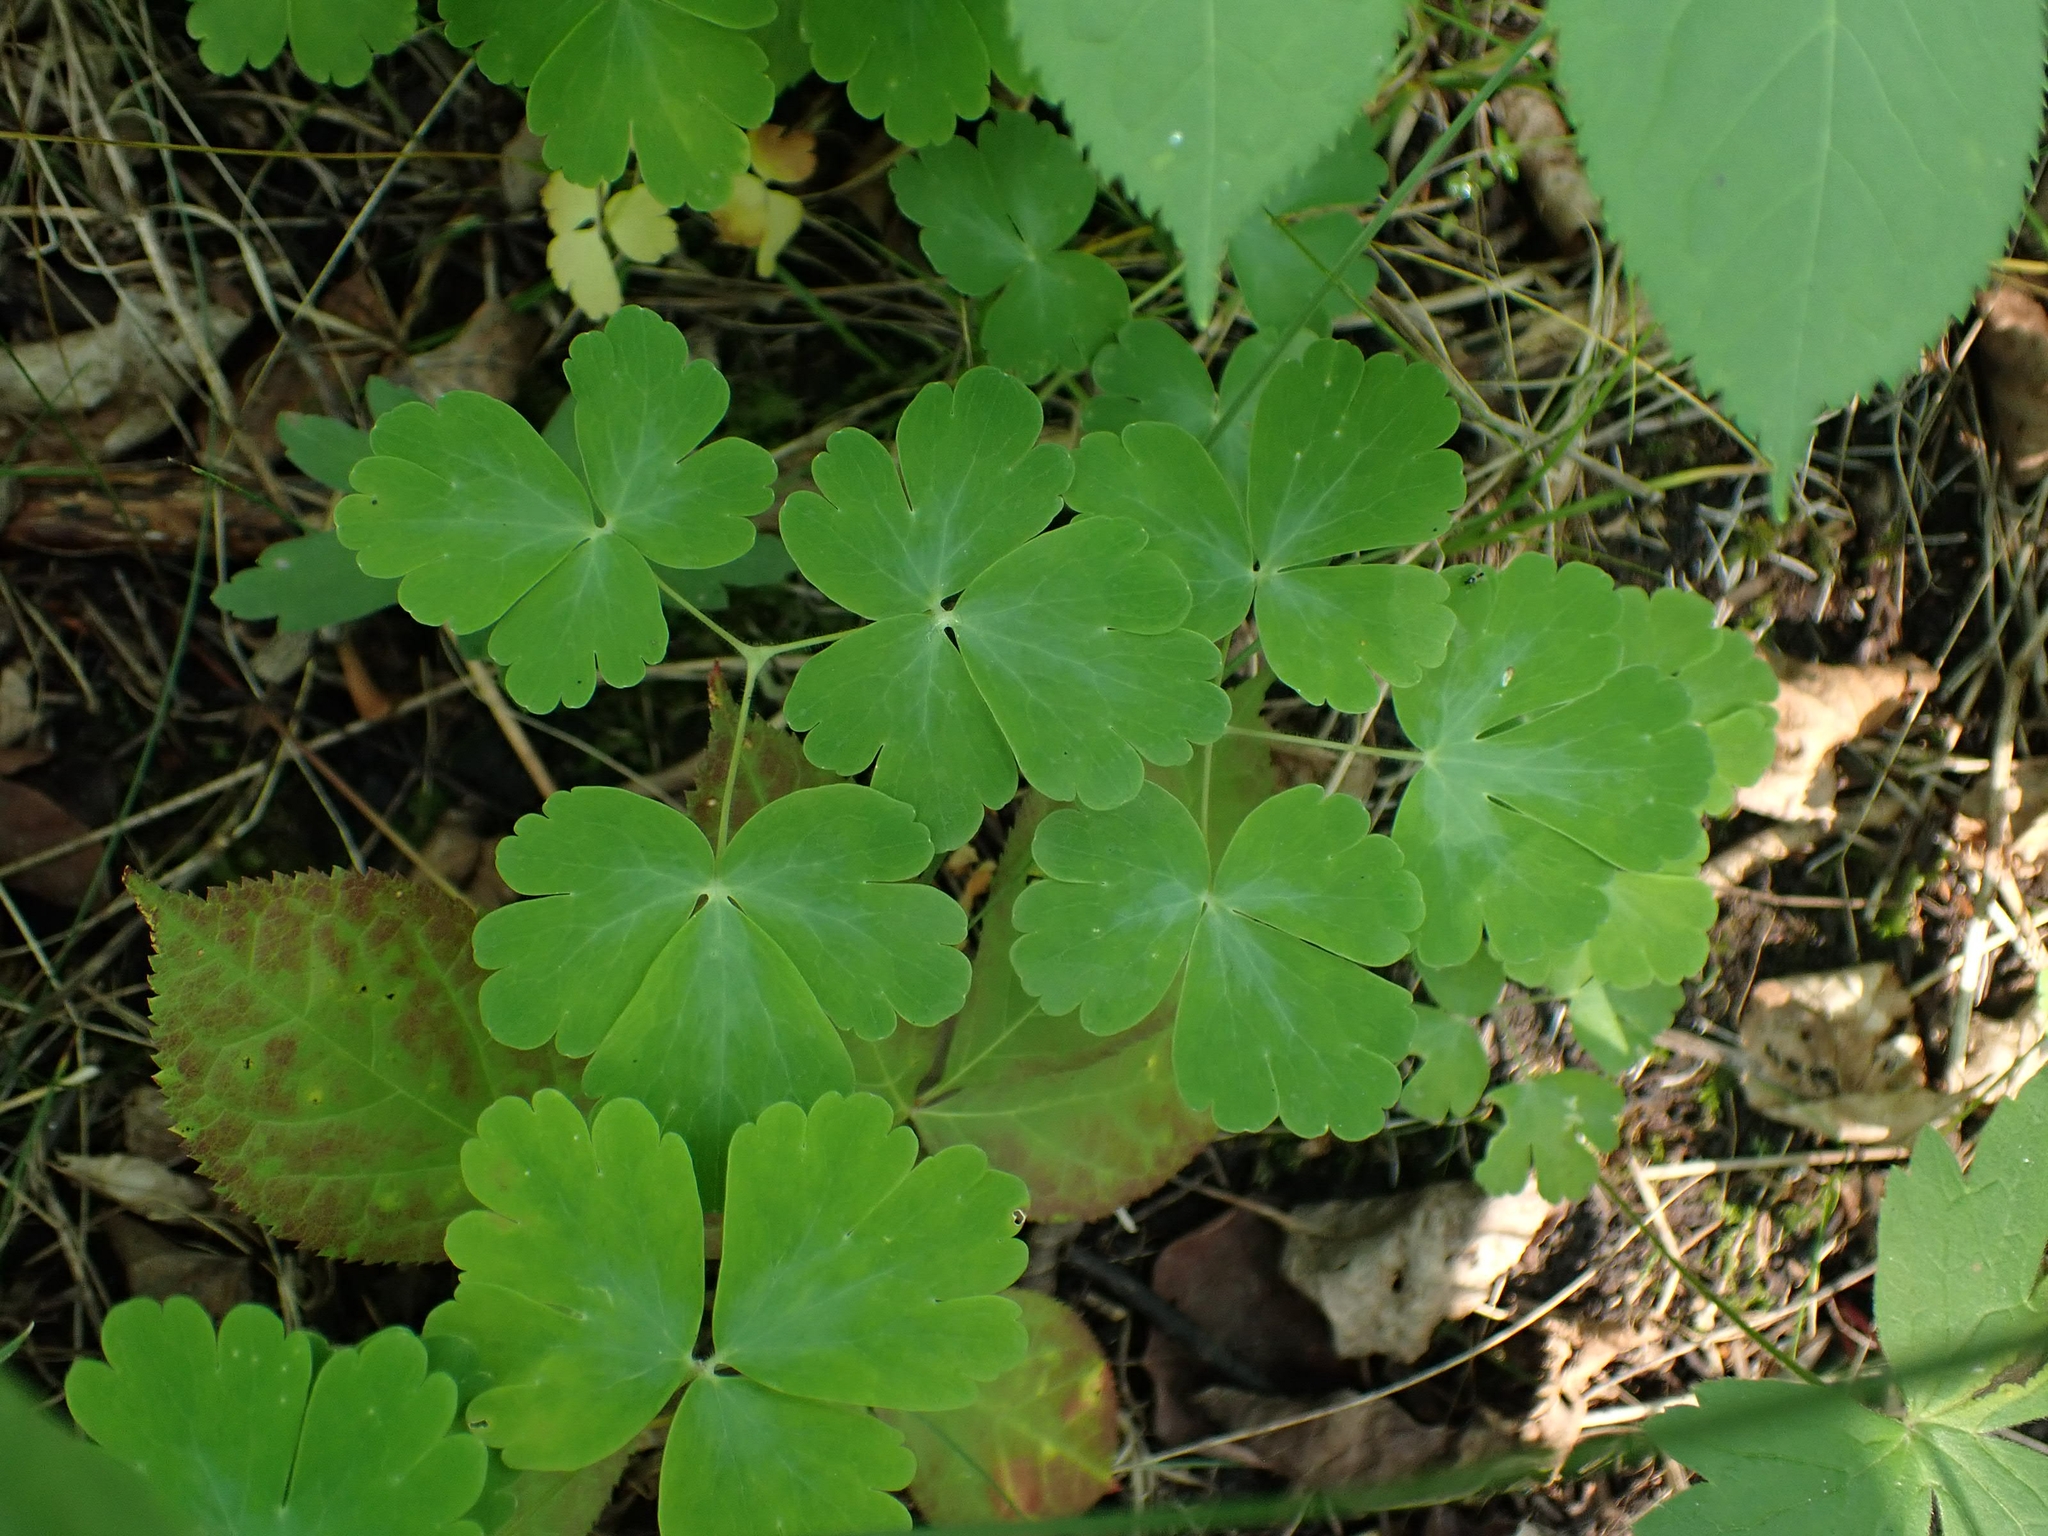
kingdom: Plantae
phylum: Tracheophyta
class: Magnoliopsida
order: Ranunculales
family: Ranunculaceae
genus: Aquilegia
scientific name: Aquilegia canadensis
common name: American columbine
